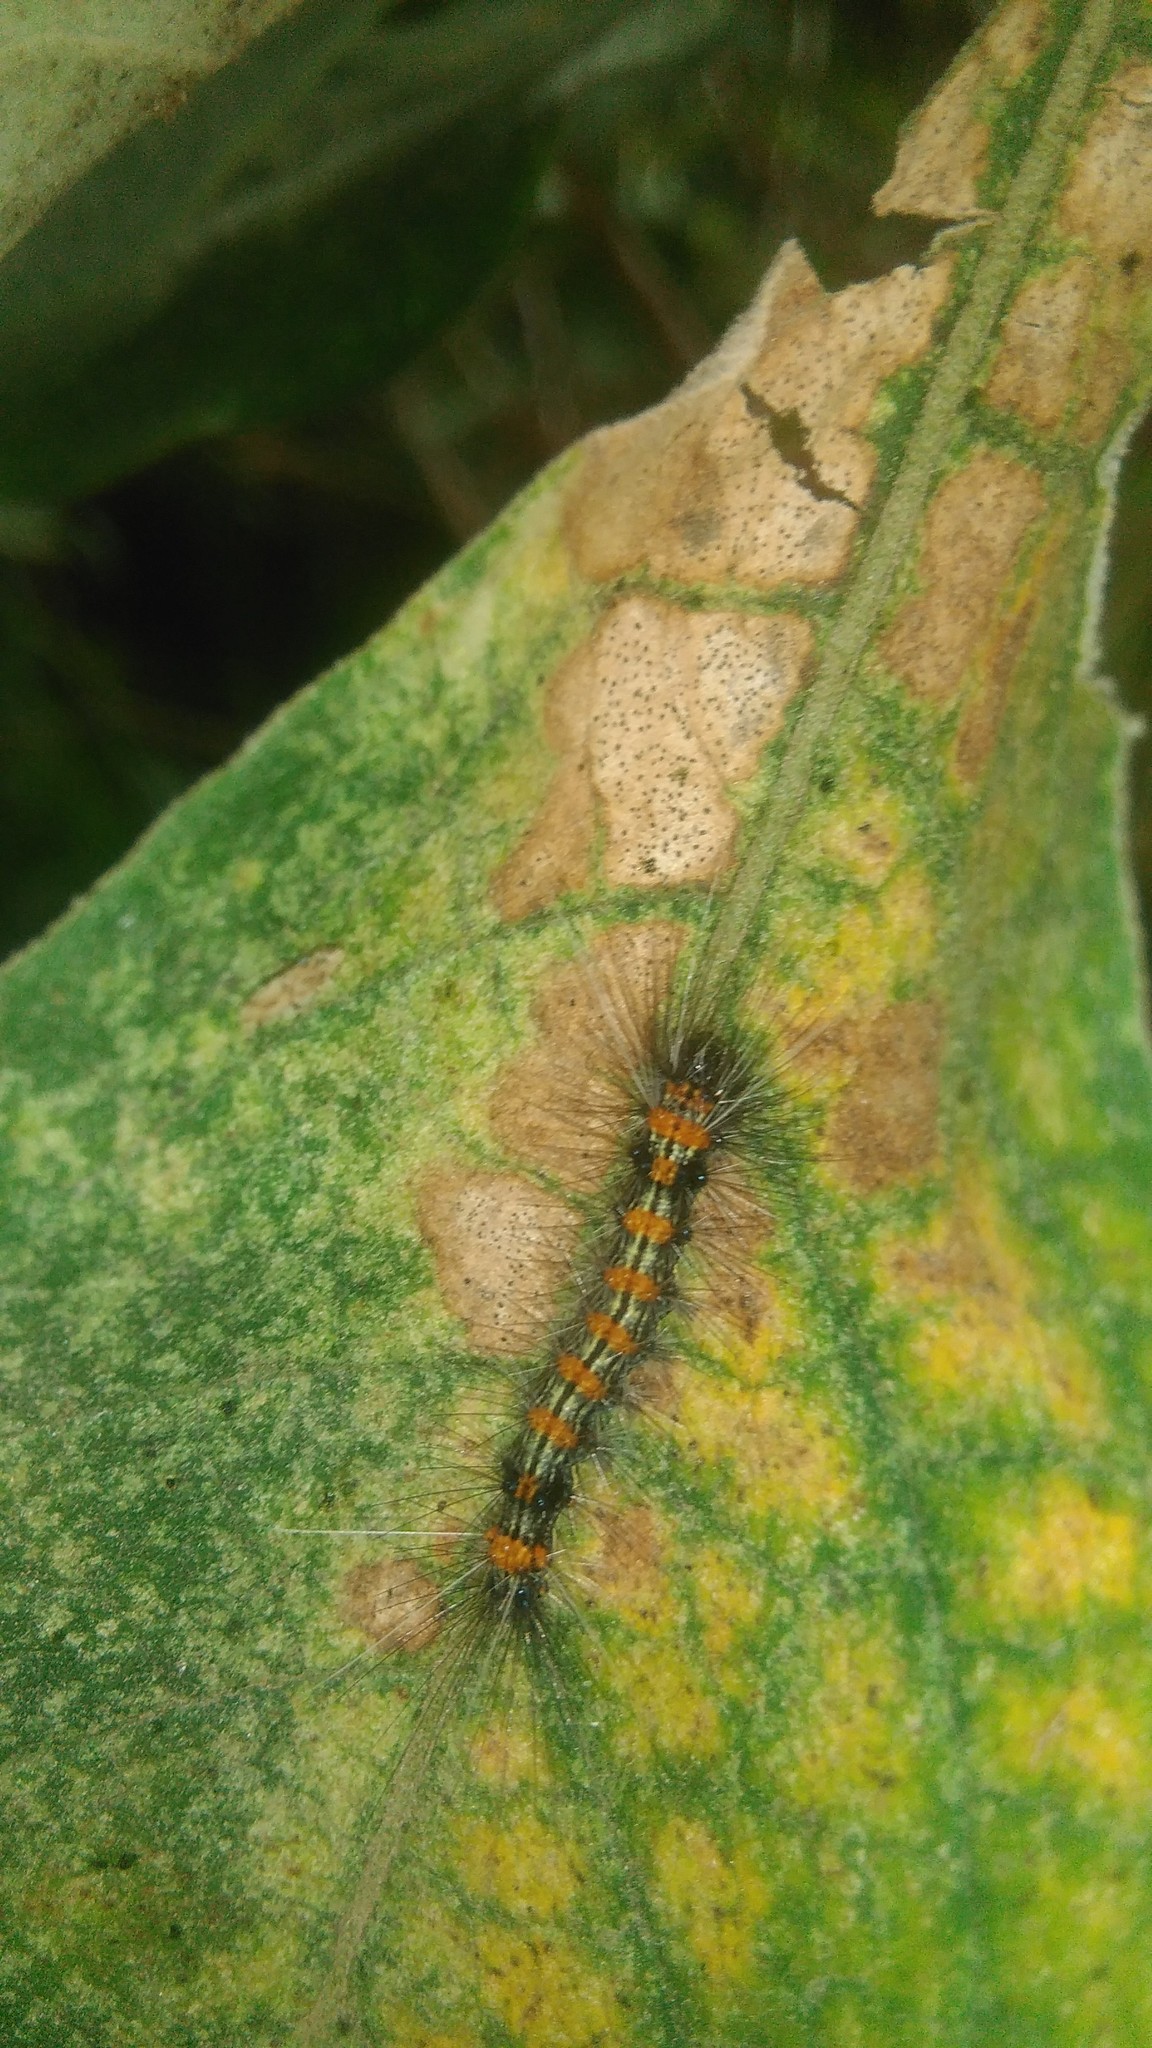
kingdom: Animalia
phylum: Arthropoda
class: Insecta
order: Lepidoptera
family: Erebidae
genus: Dysschema
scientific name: Dysschema sacrifica
